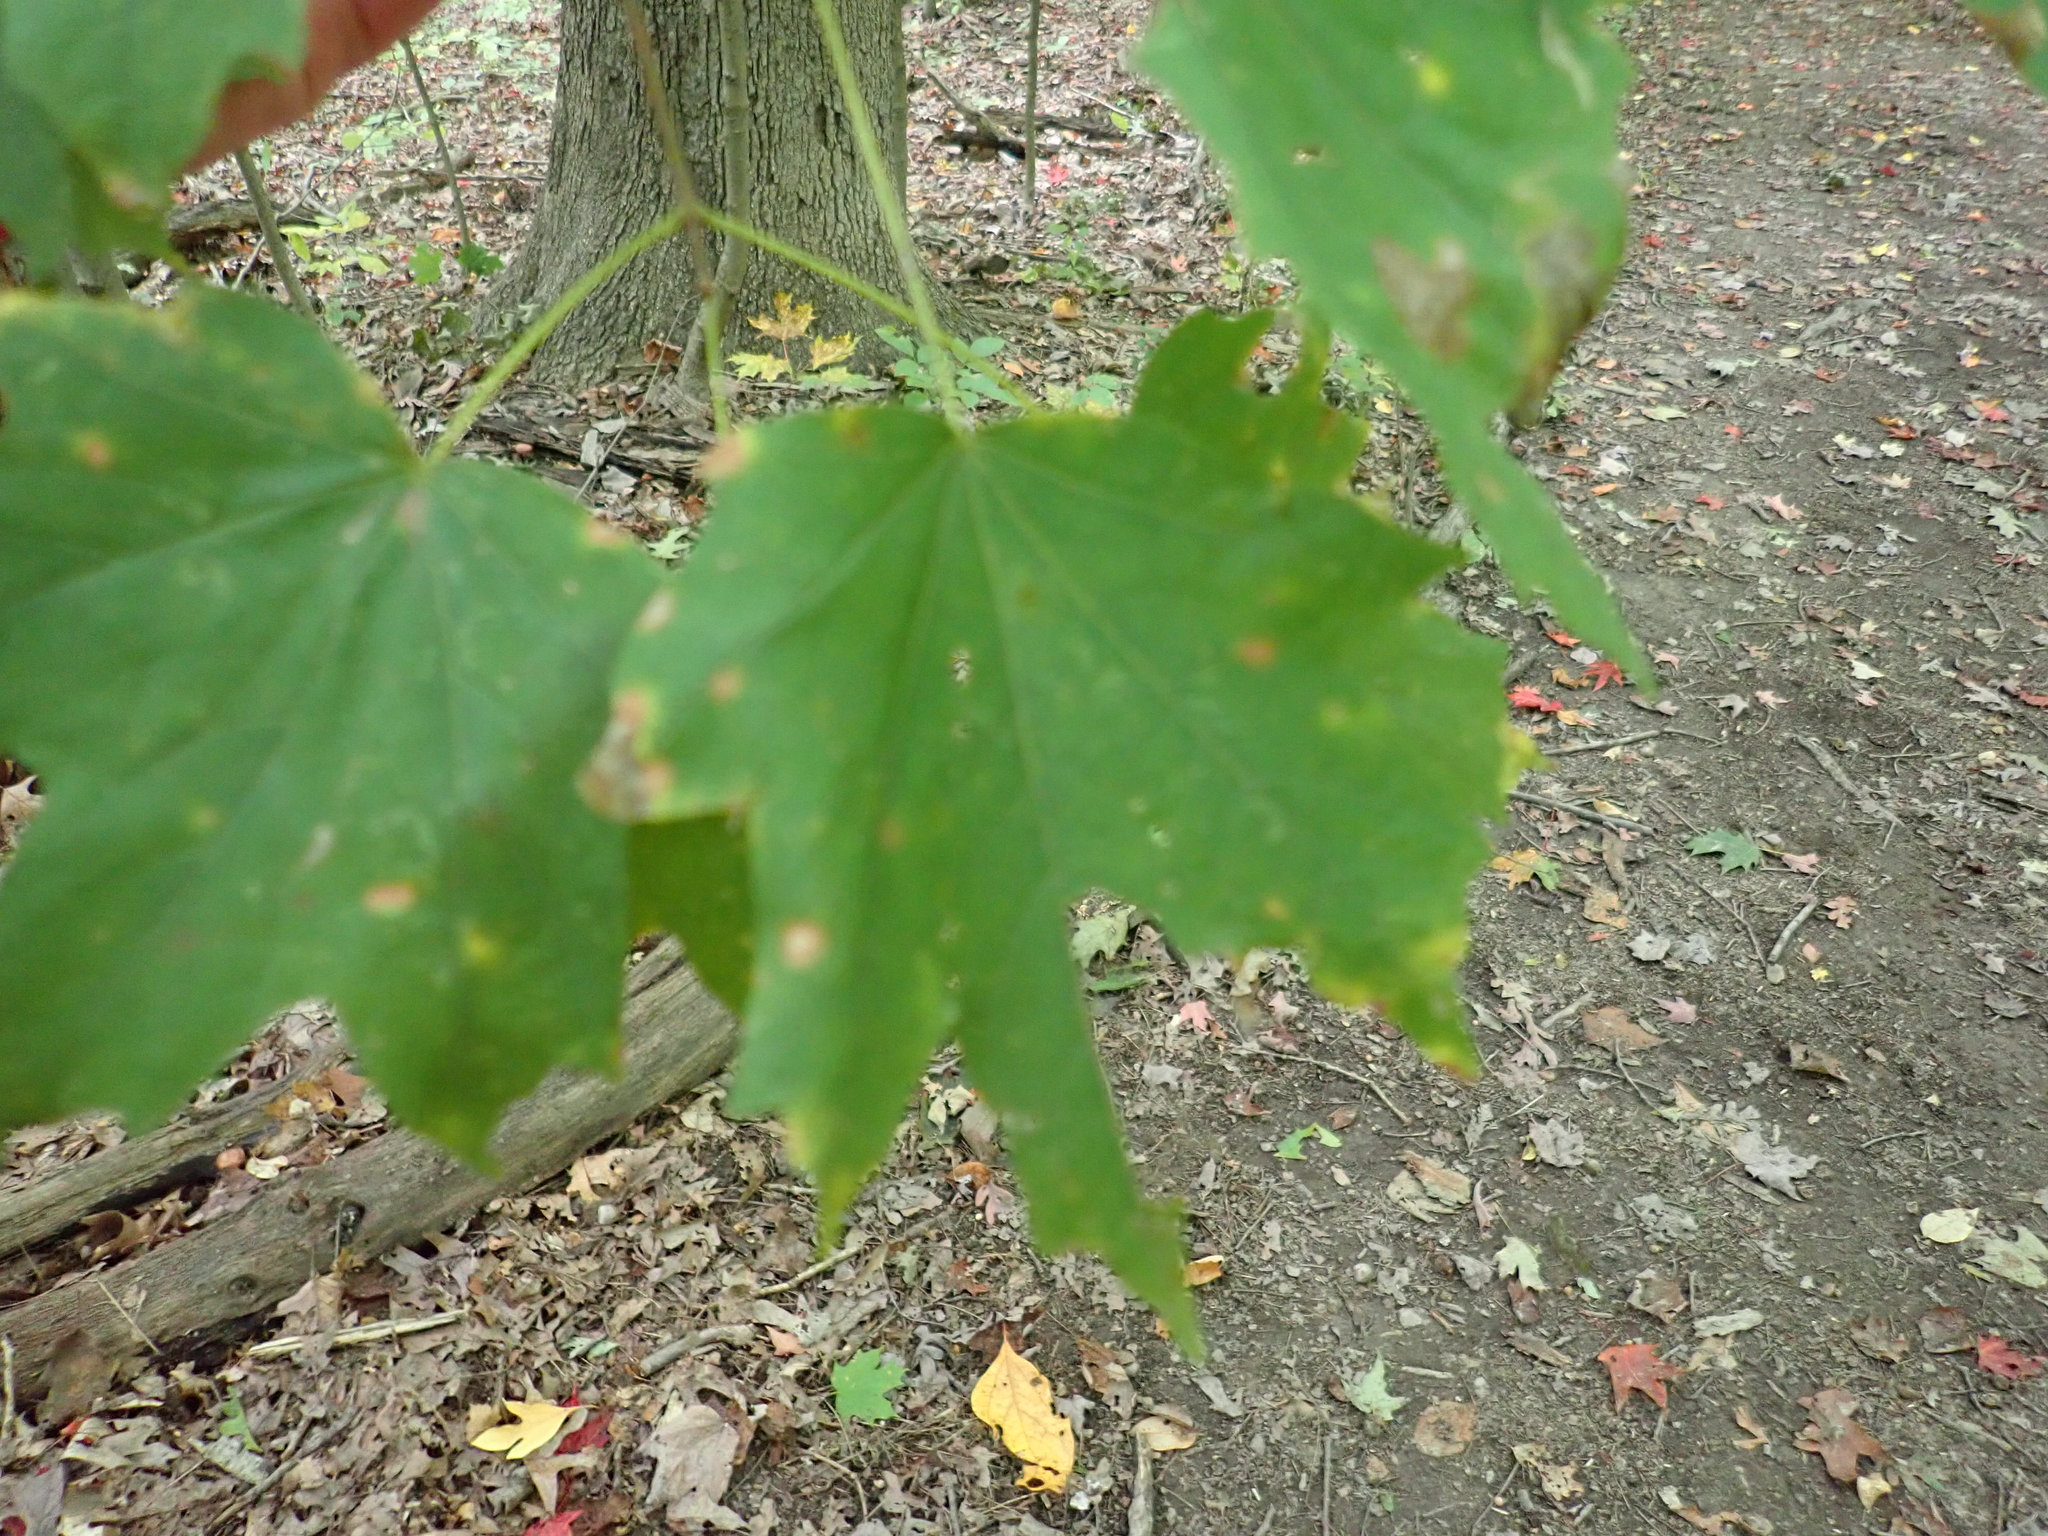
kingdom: Plantae
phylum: Tracheophyta
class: Magnoliopsida
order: Sapindales
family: Sapindaceae
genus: Acer
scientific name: Acer saccharum
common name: Sugar maple
